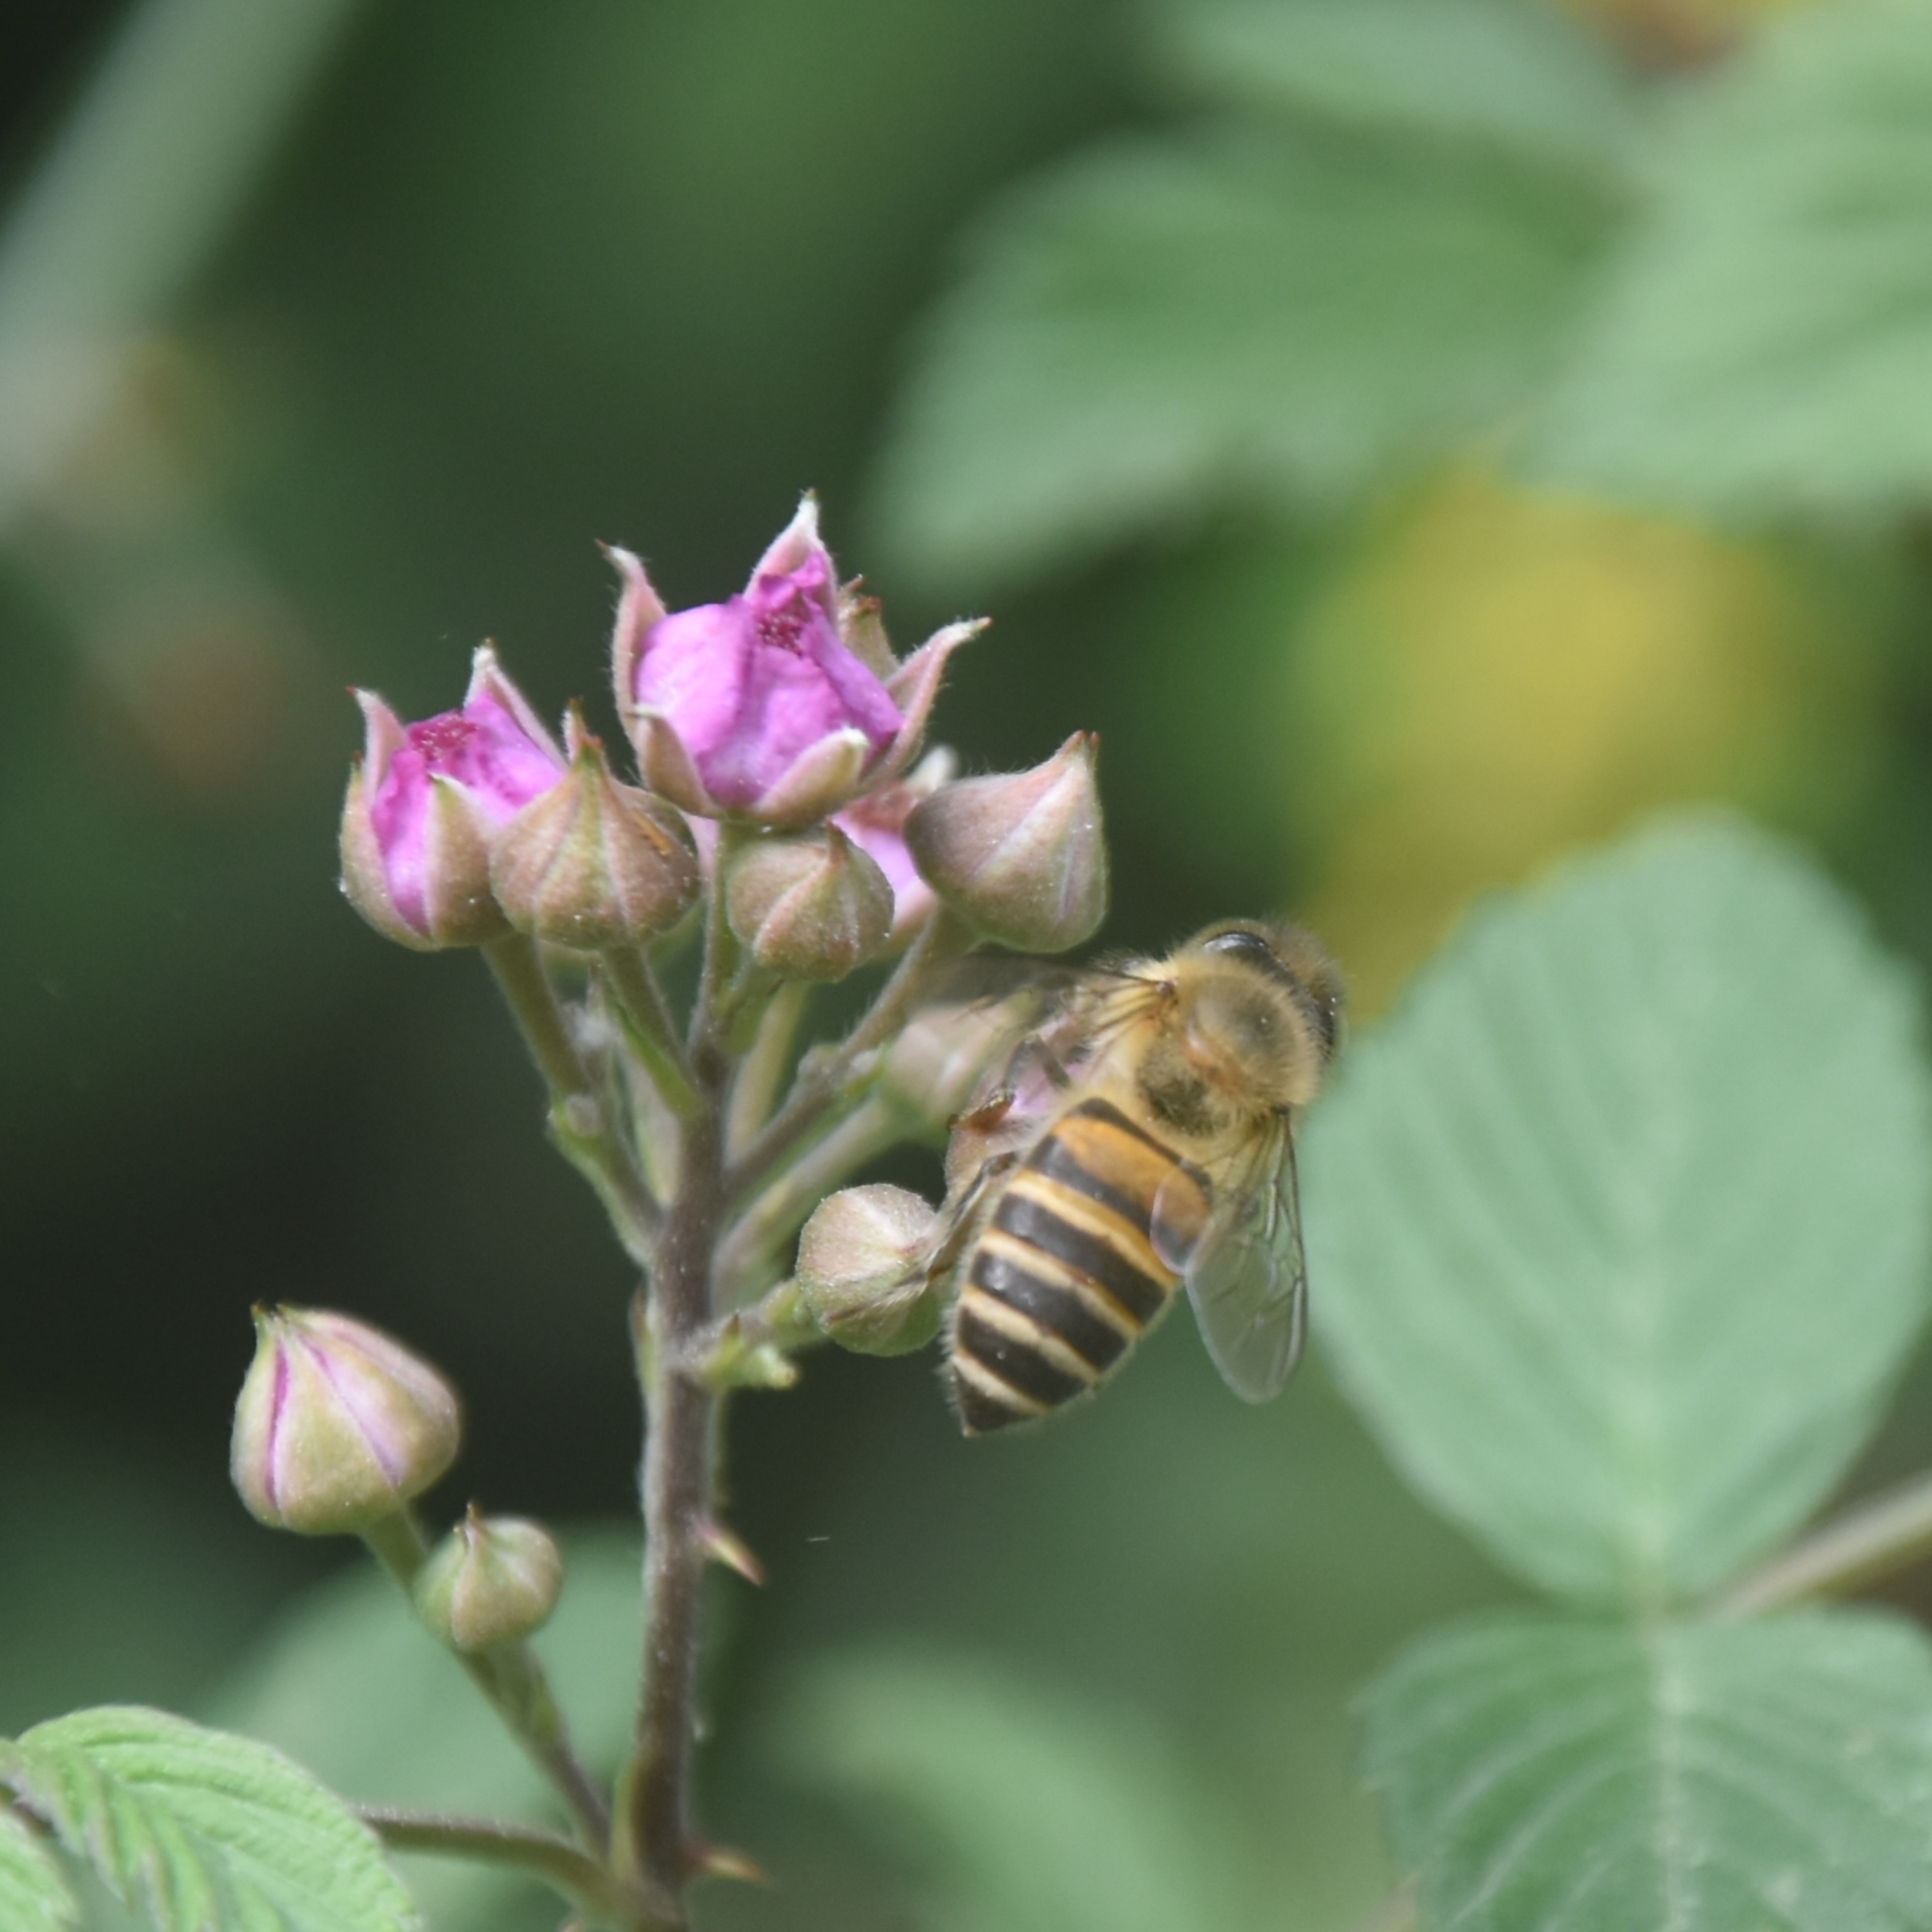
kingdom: Animalia
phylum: Arthropoda
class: Insecta
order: Hymenoptera
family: Apidae
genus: Apis
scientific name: Apis cerana
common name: Honey bee
